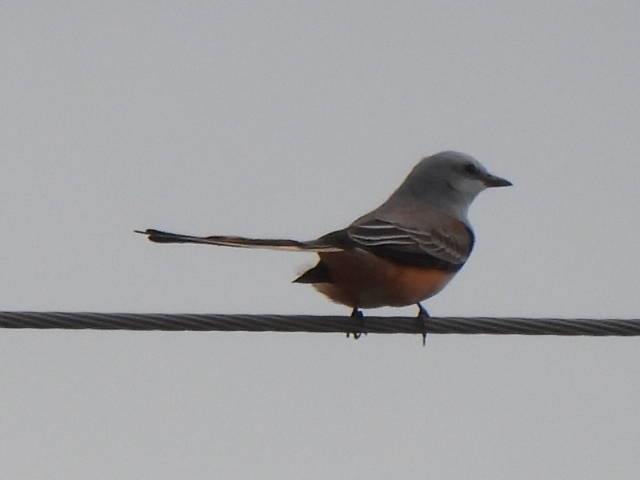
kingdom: Animalia
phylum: Chordata
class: Aves
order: Passeriformes
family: Tyrannidae
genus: Tyrannus
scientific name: Tyrannus forficatus
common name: Scissor-tailed flycatcher
